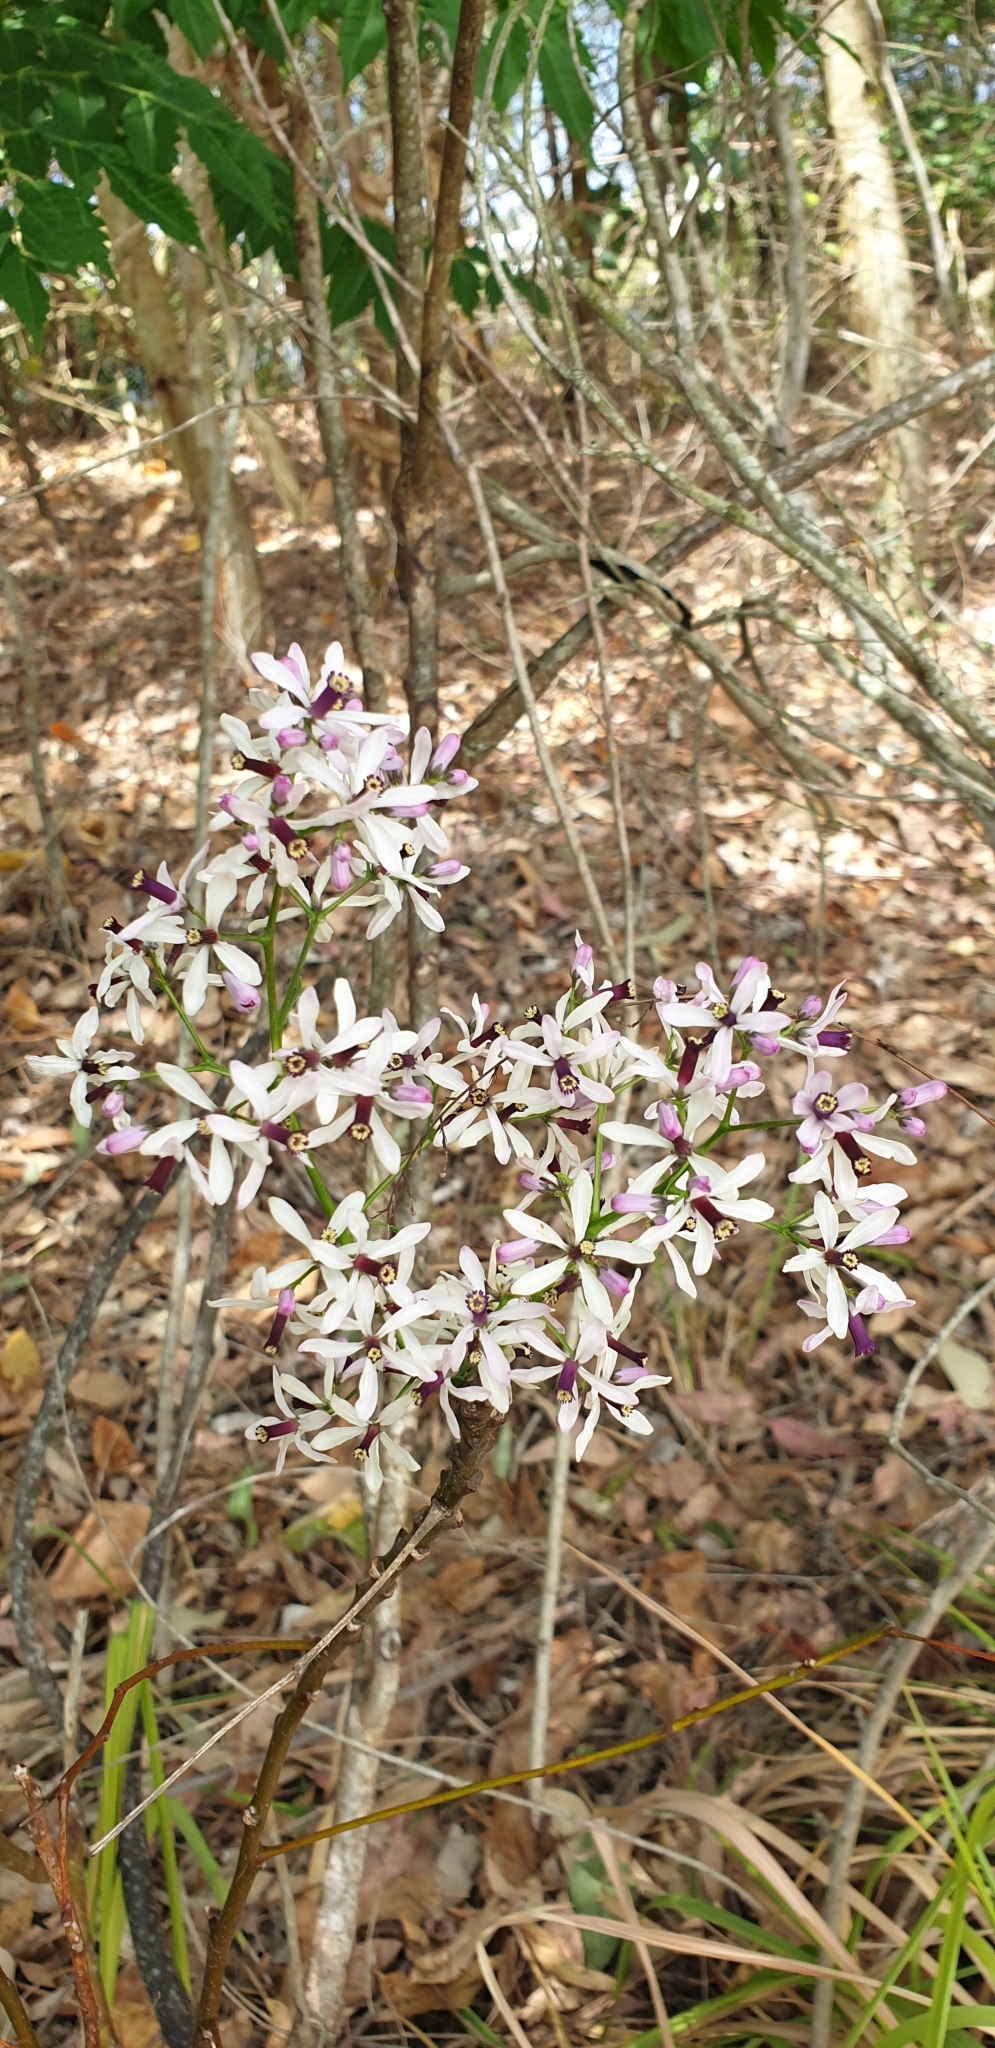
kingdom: Plantae
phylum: Tracheophyta
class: Magnoliopsida
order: Sapindales
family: Meliaceae
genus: Melia
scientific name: Melia azedarach
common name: Chinaberrytree
